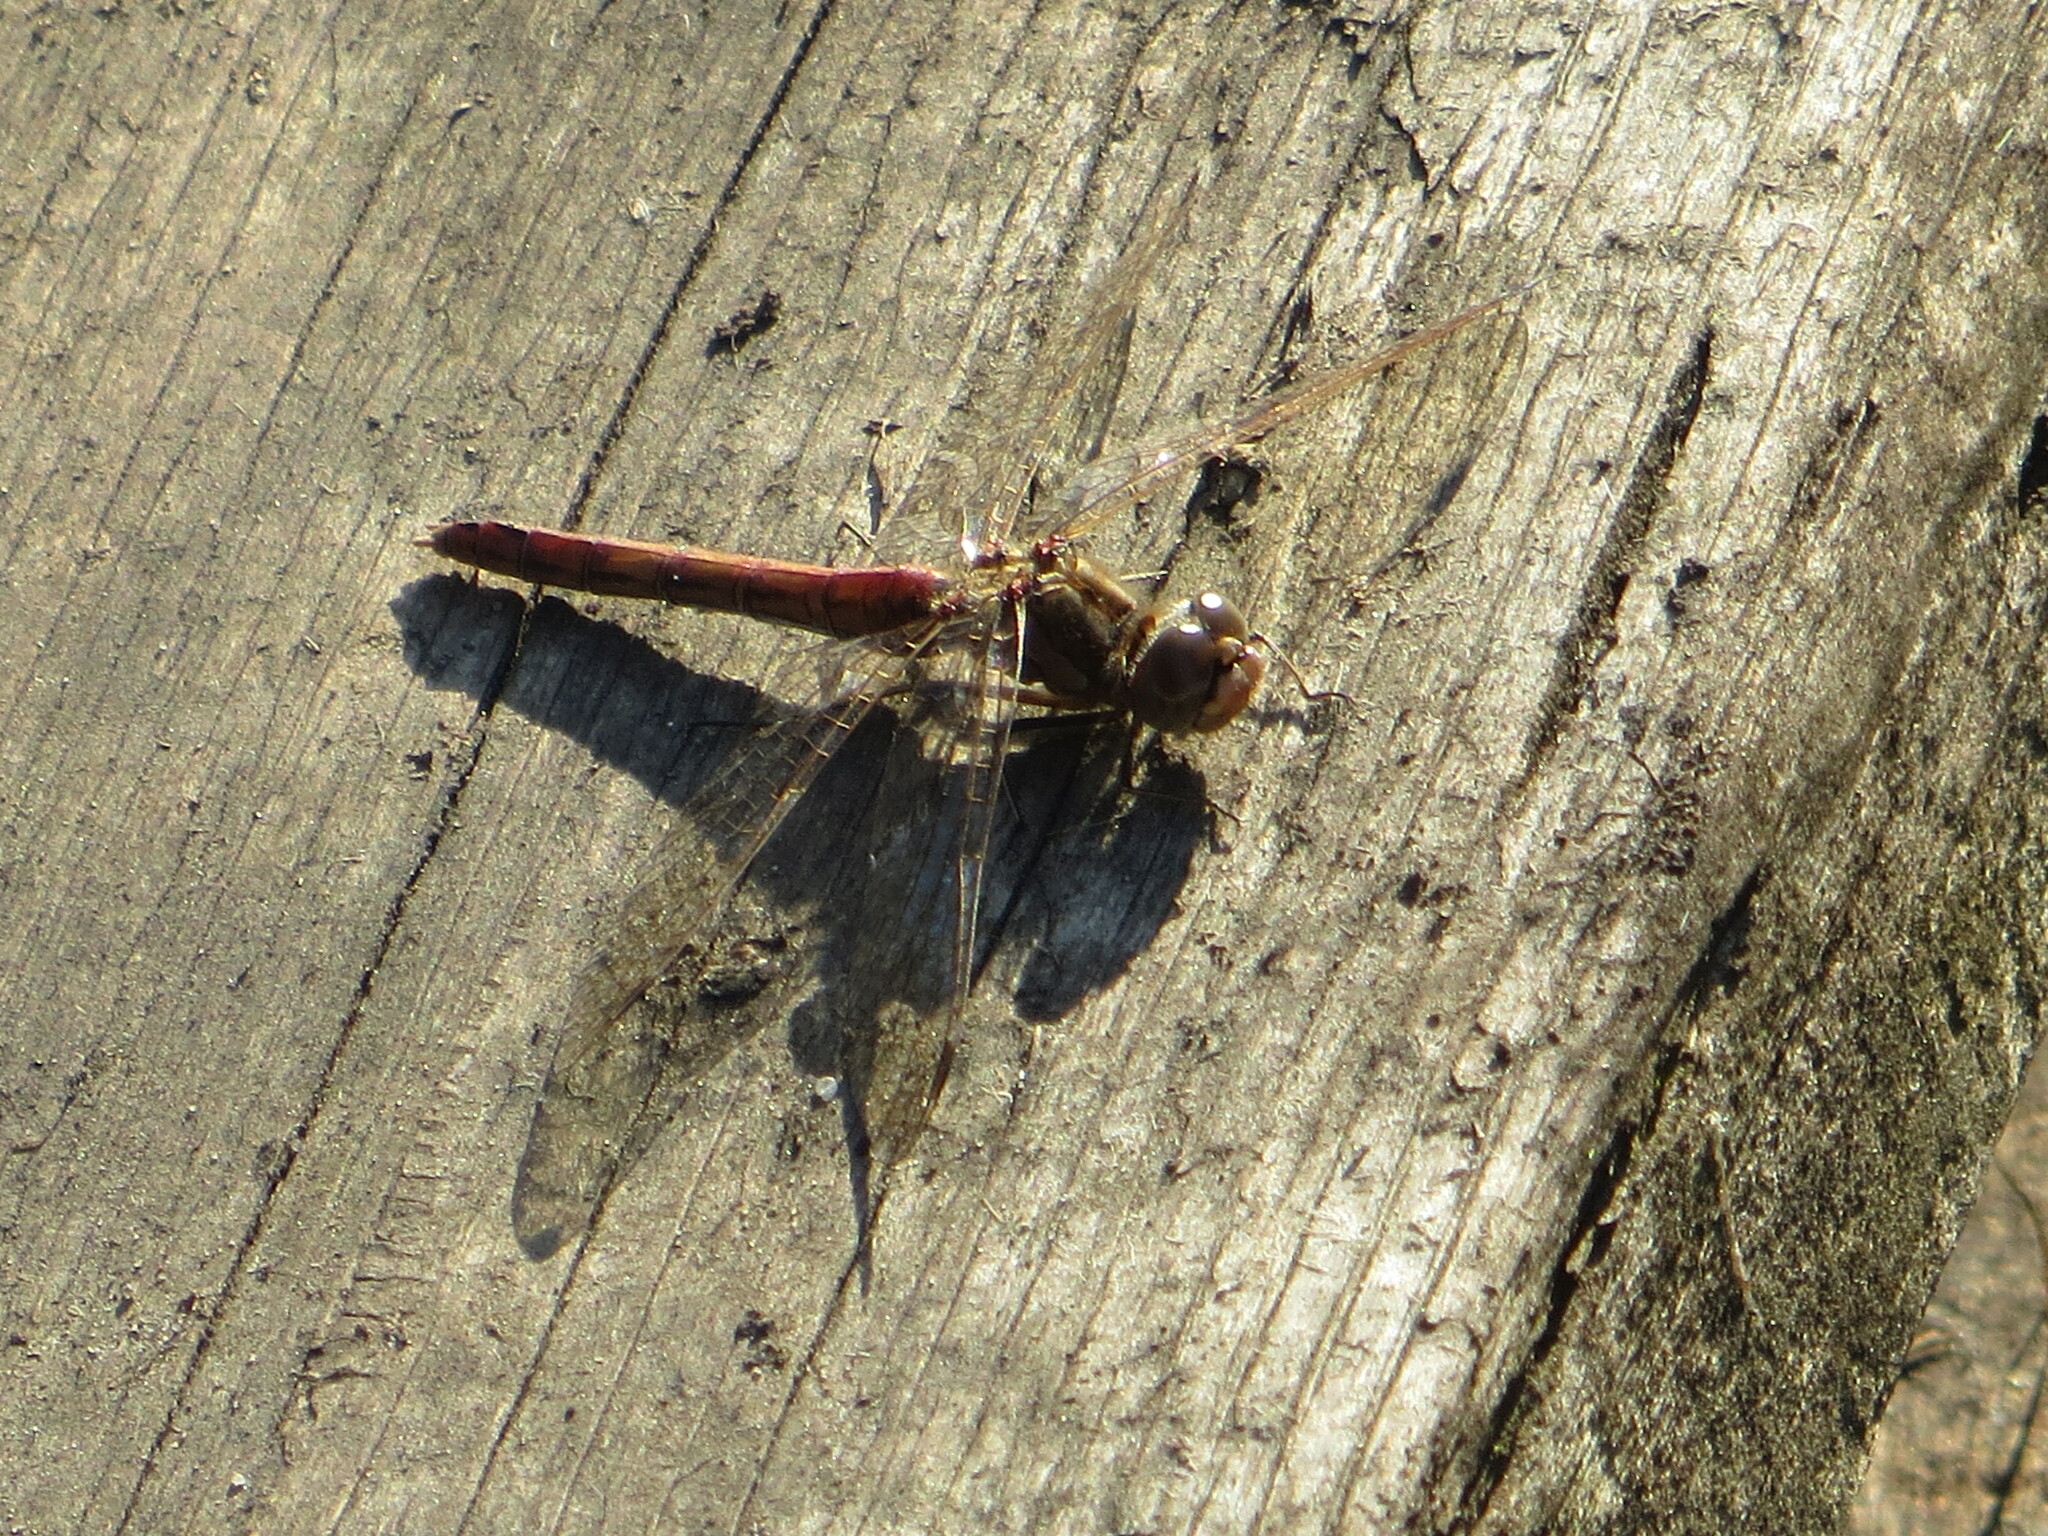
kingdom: Animalia
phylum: Arthropoda
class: Insecta
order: Odonata
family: Libellulidae
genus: Sympetrum
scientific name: Sympetrum vulgatum
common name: Vagrant darter
